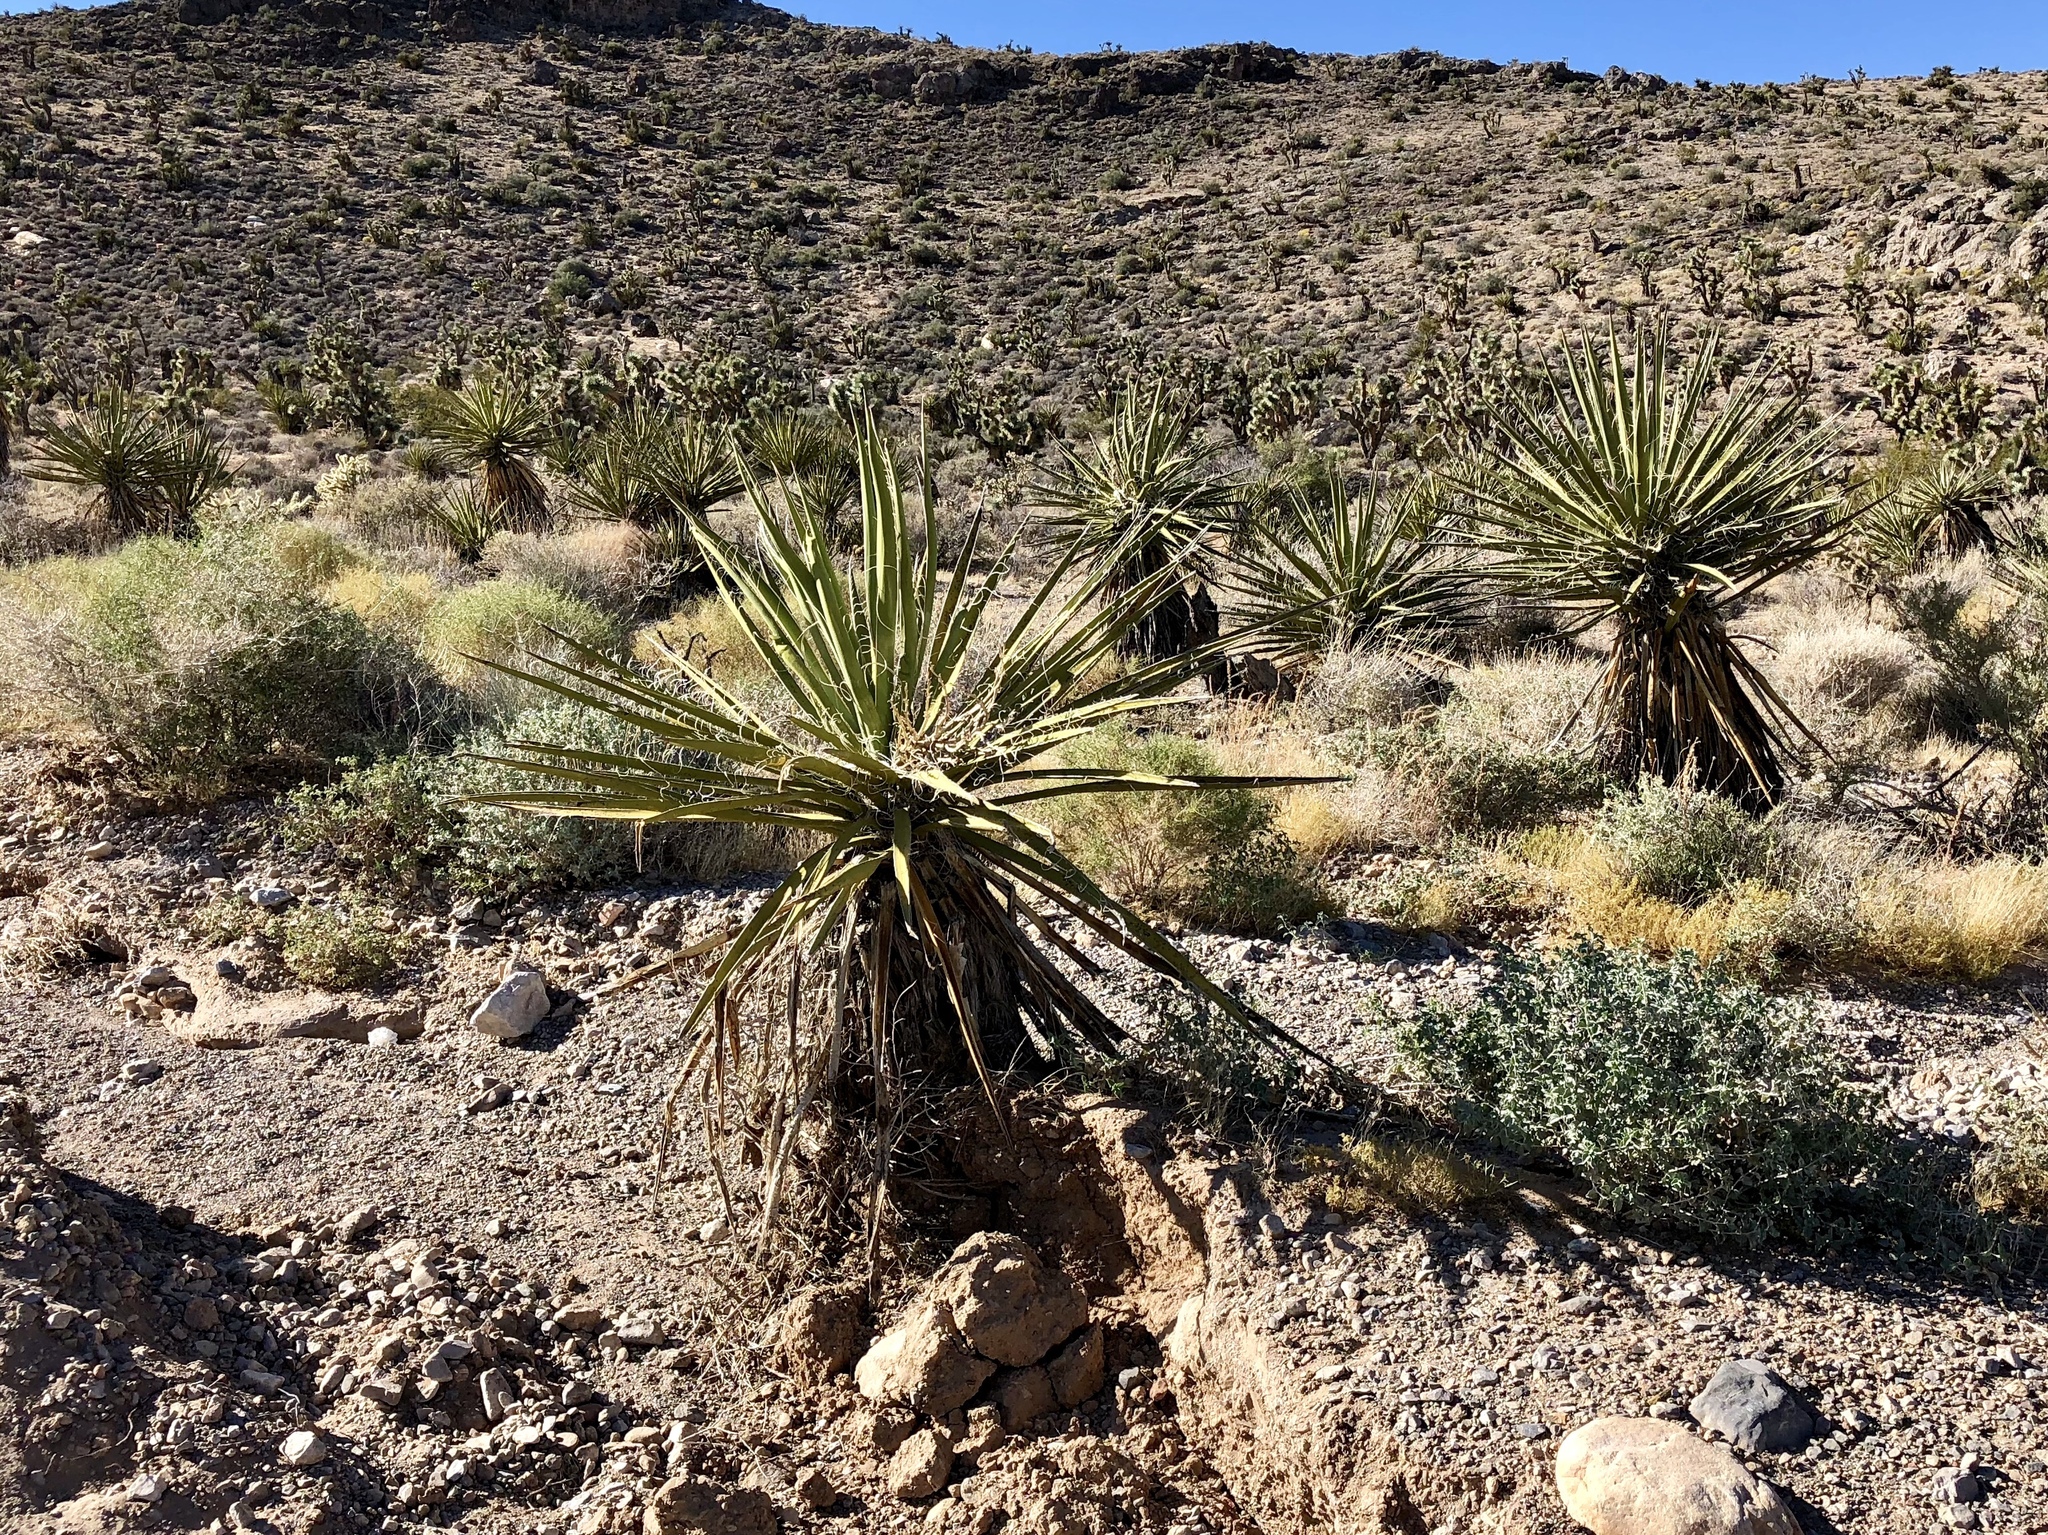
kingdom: Plantae
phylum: Tracheophyta
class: Liliopsida
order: Asparagales
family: Asparagaceae
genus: Yucca
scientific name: Yucca schidigera
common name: Mojave yucca
